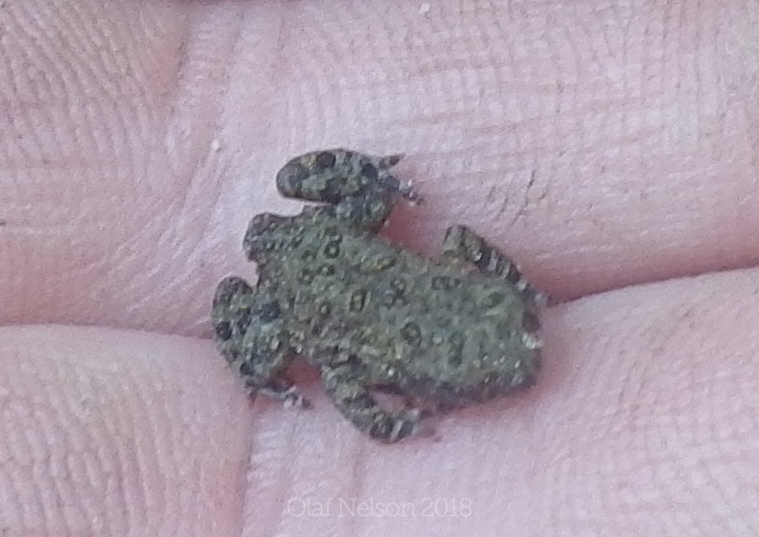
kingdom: Animalia
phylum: Chordata
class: Amphibia
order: Anura
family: Bufonidae
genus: Anaxyrus
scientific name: Anaxyrus americanus
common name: American toad
